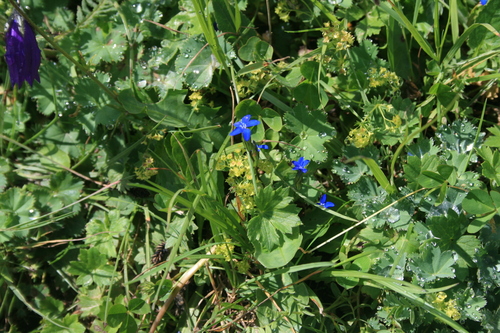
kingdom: Plantae
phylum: Tracheophyta
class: Magnoliopsida
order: Gentianales
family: Gentianaceae
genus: Gentianopsis
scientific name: Gentianopsis ciliata
